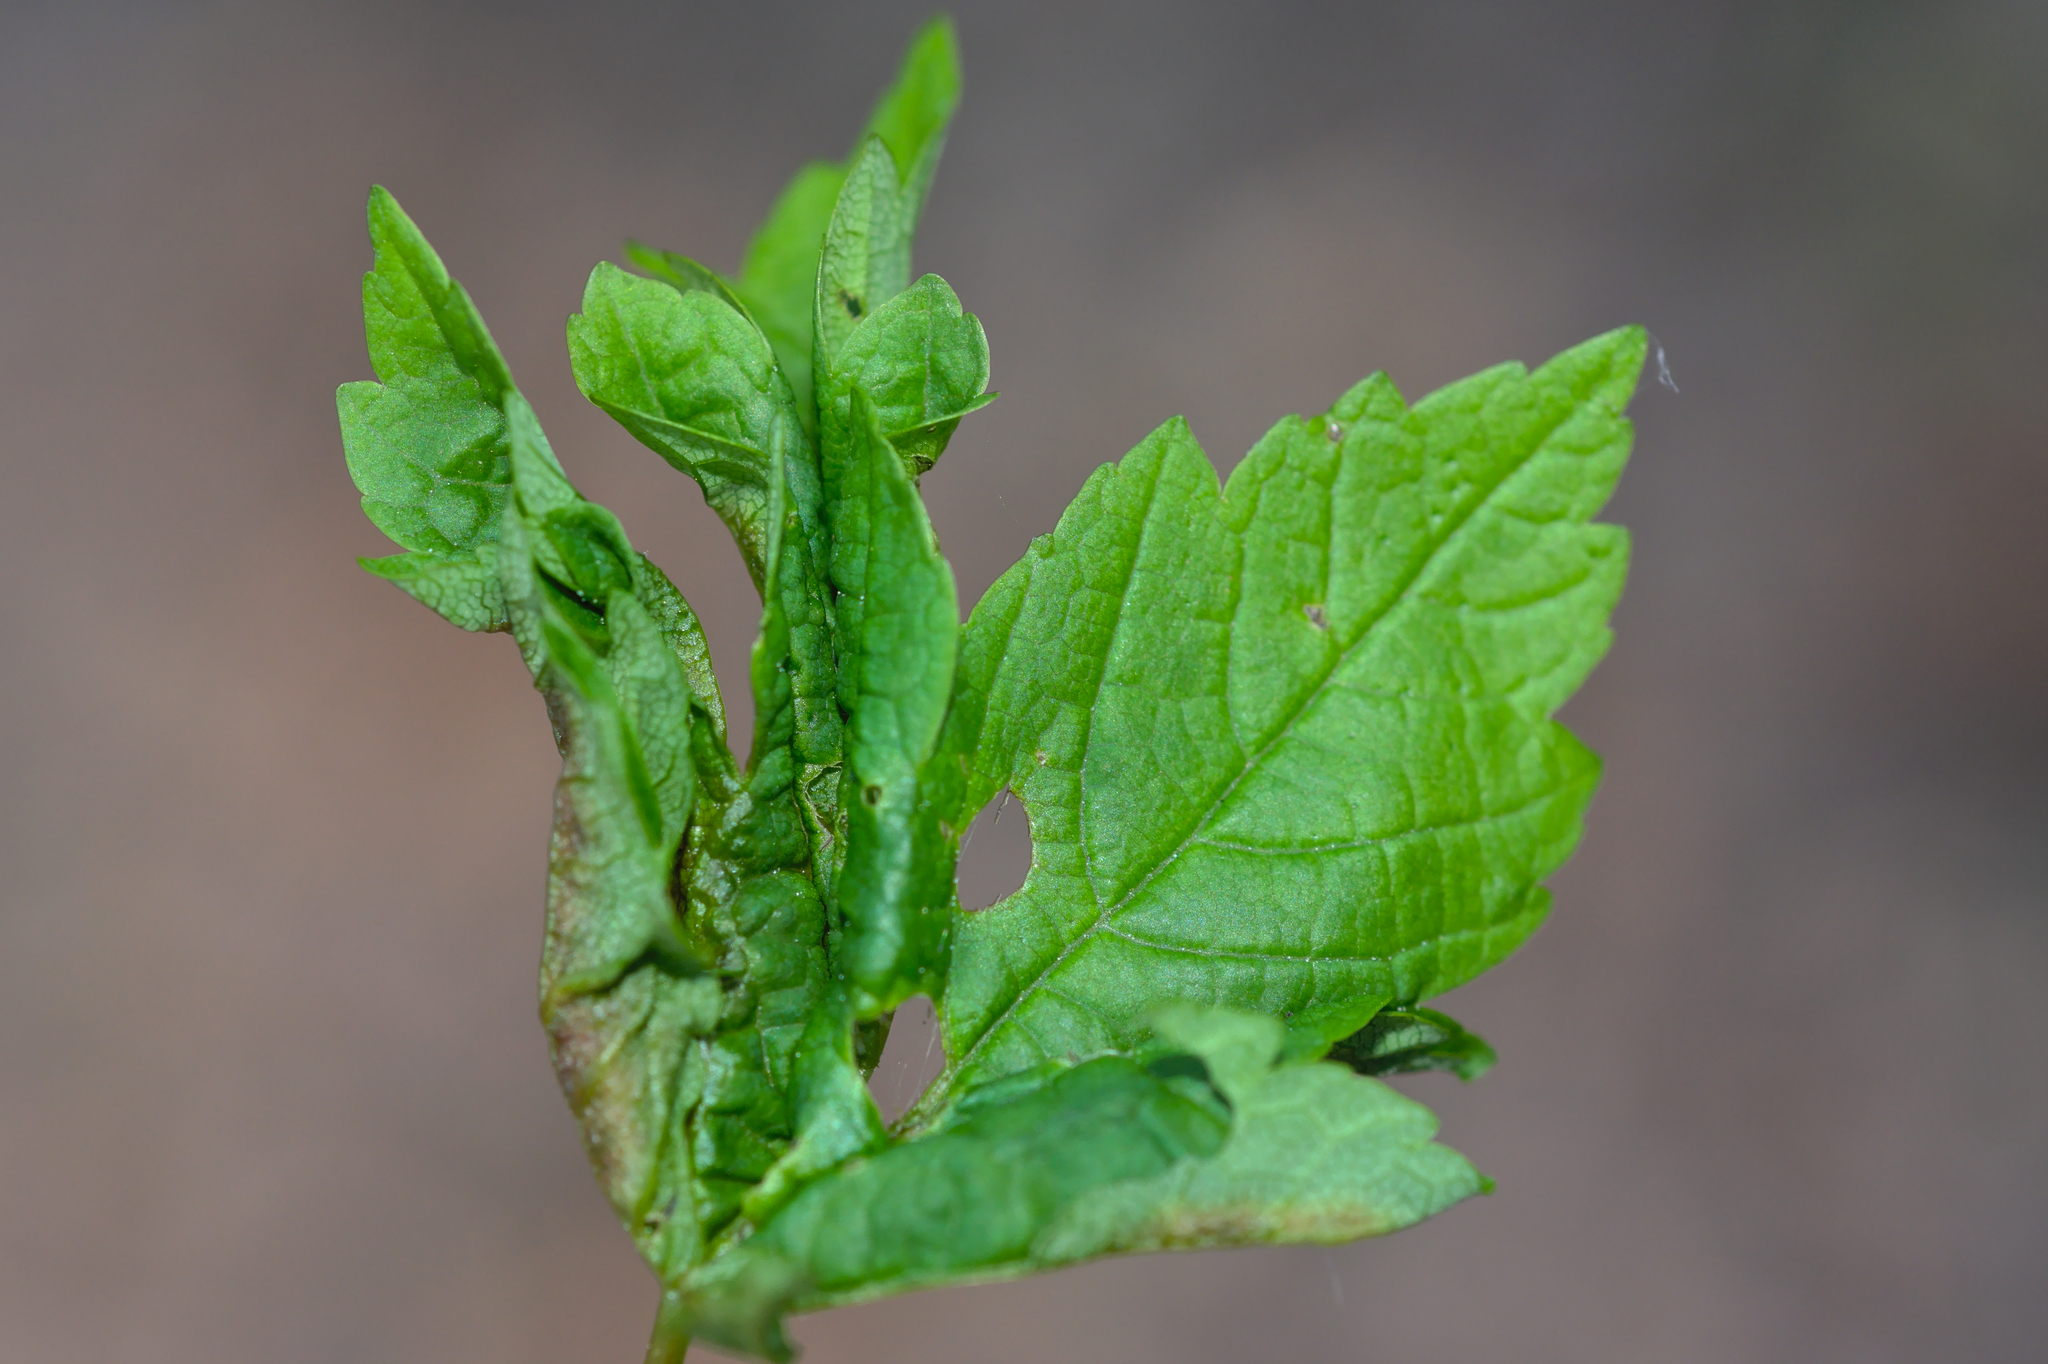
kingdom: Animalia
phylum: Arthropoda
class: Insecta
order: Diptera
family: Cecidomyiidae
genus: Dasineura
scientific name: Dasineura irregularis
